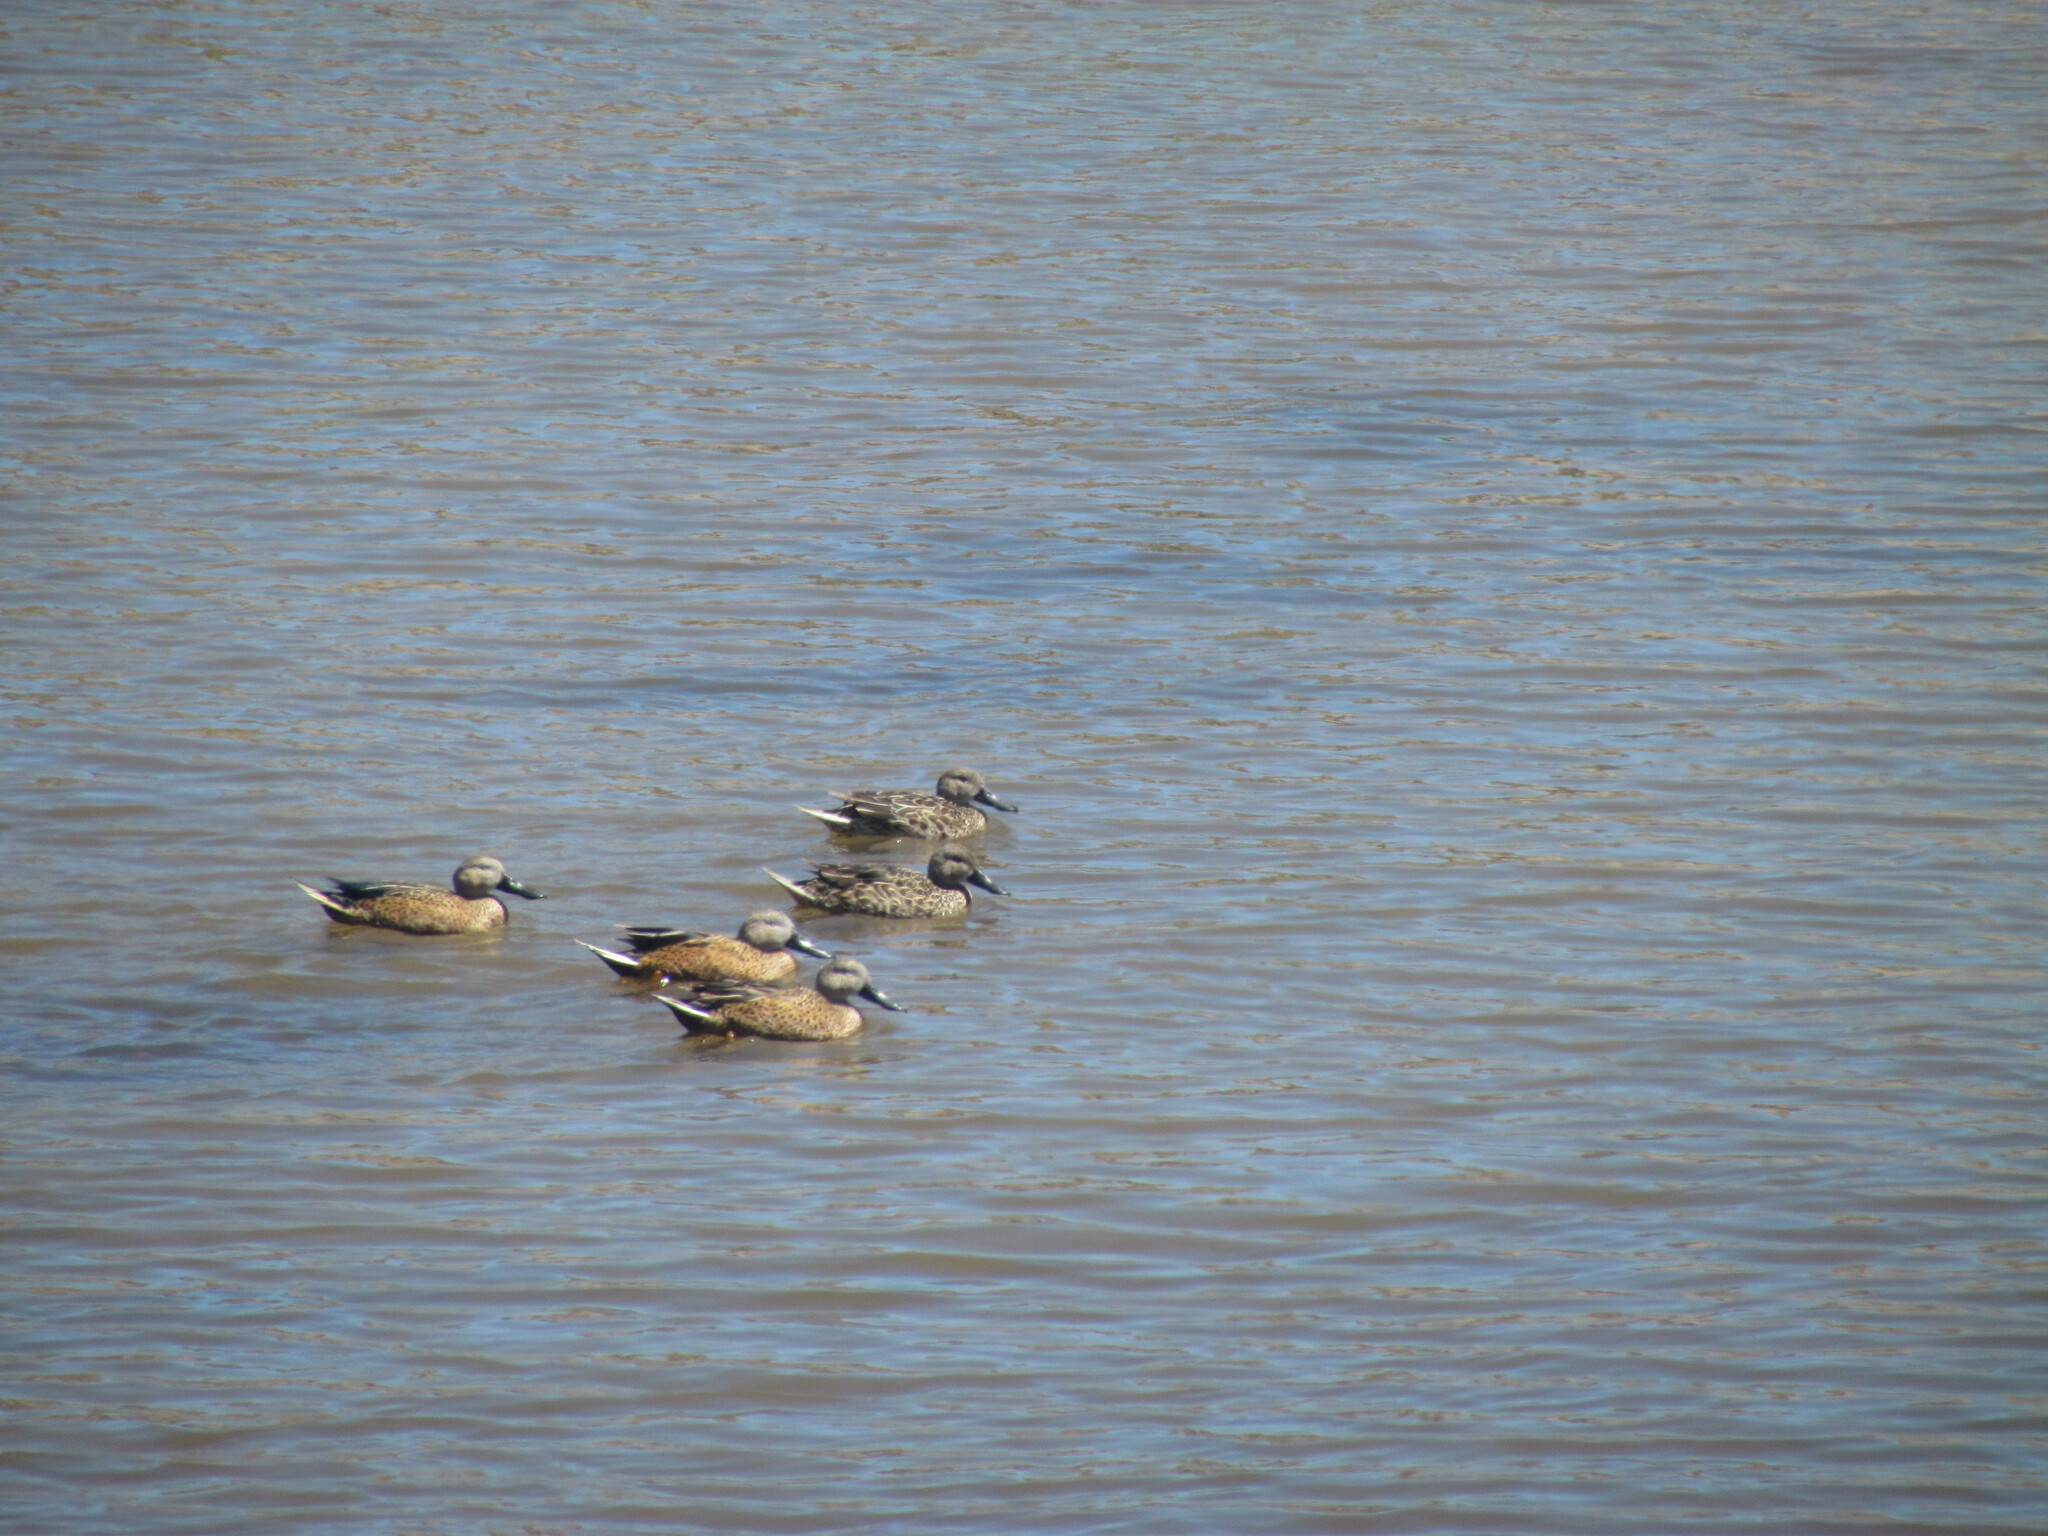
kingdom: Animalia
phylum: Chordata
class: Aves
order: Anseriformes
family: Anatidae
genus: Spatula
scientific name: Spatula platalea
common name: Red shoveler
